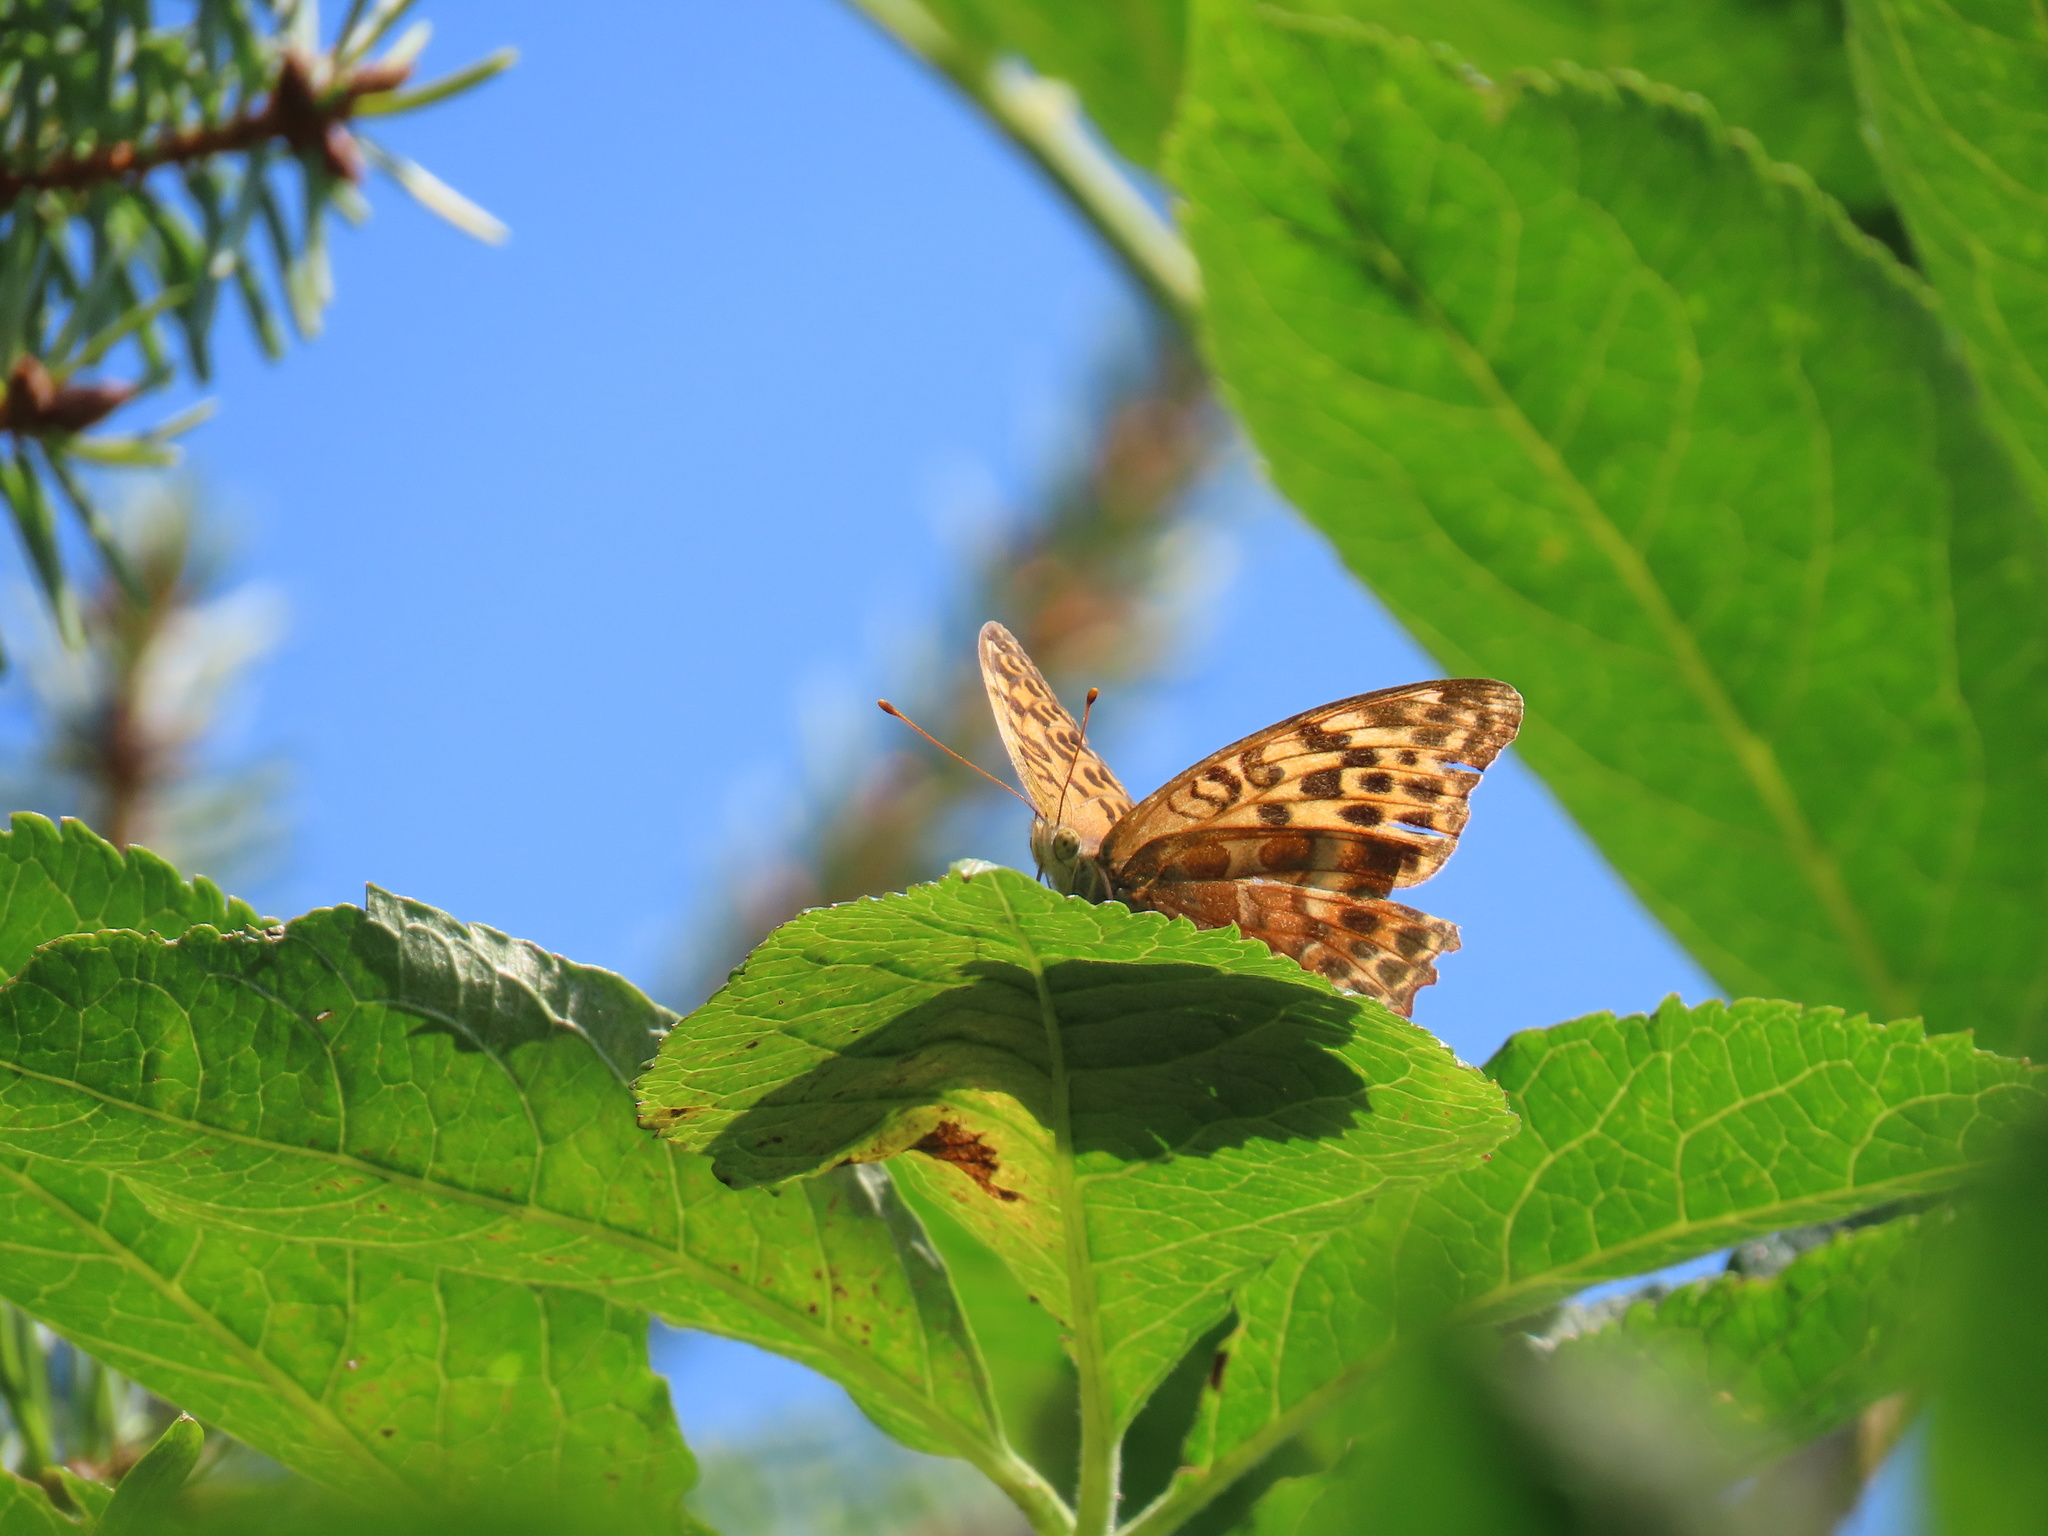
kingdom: Animalia
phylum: Arthropoda
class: Insecta
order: Lepidoptera
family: Nymphalidae
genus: Argynnis
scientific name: Argynnis paphia
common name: Silver-washed fritillary
